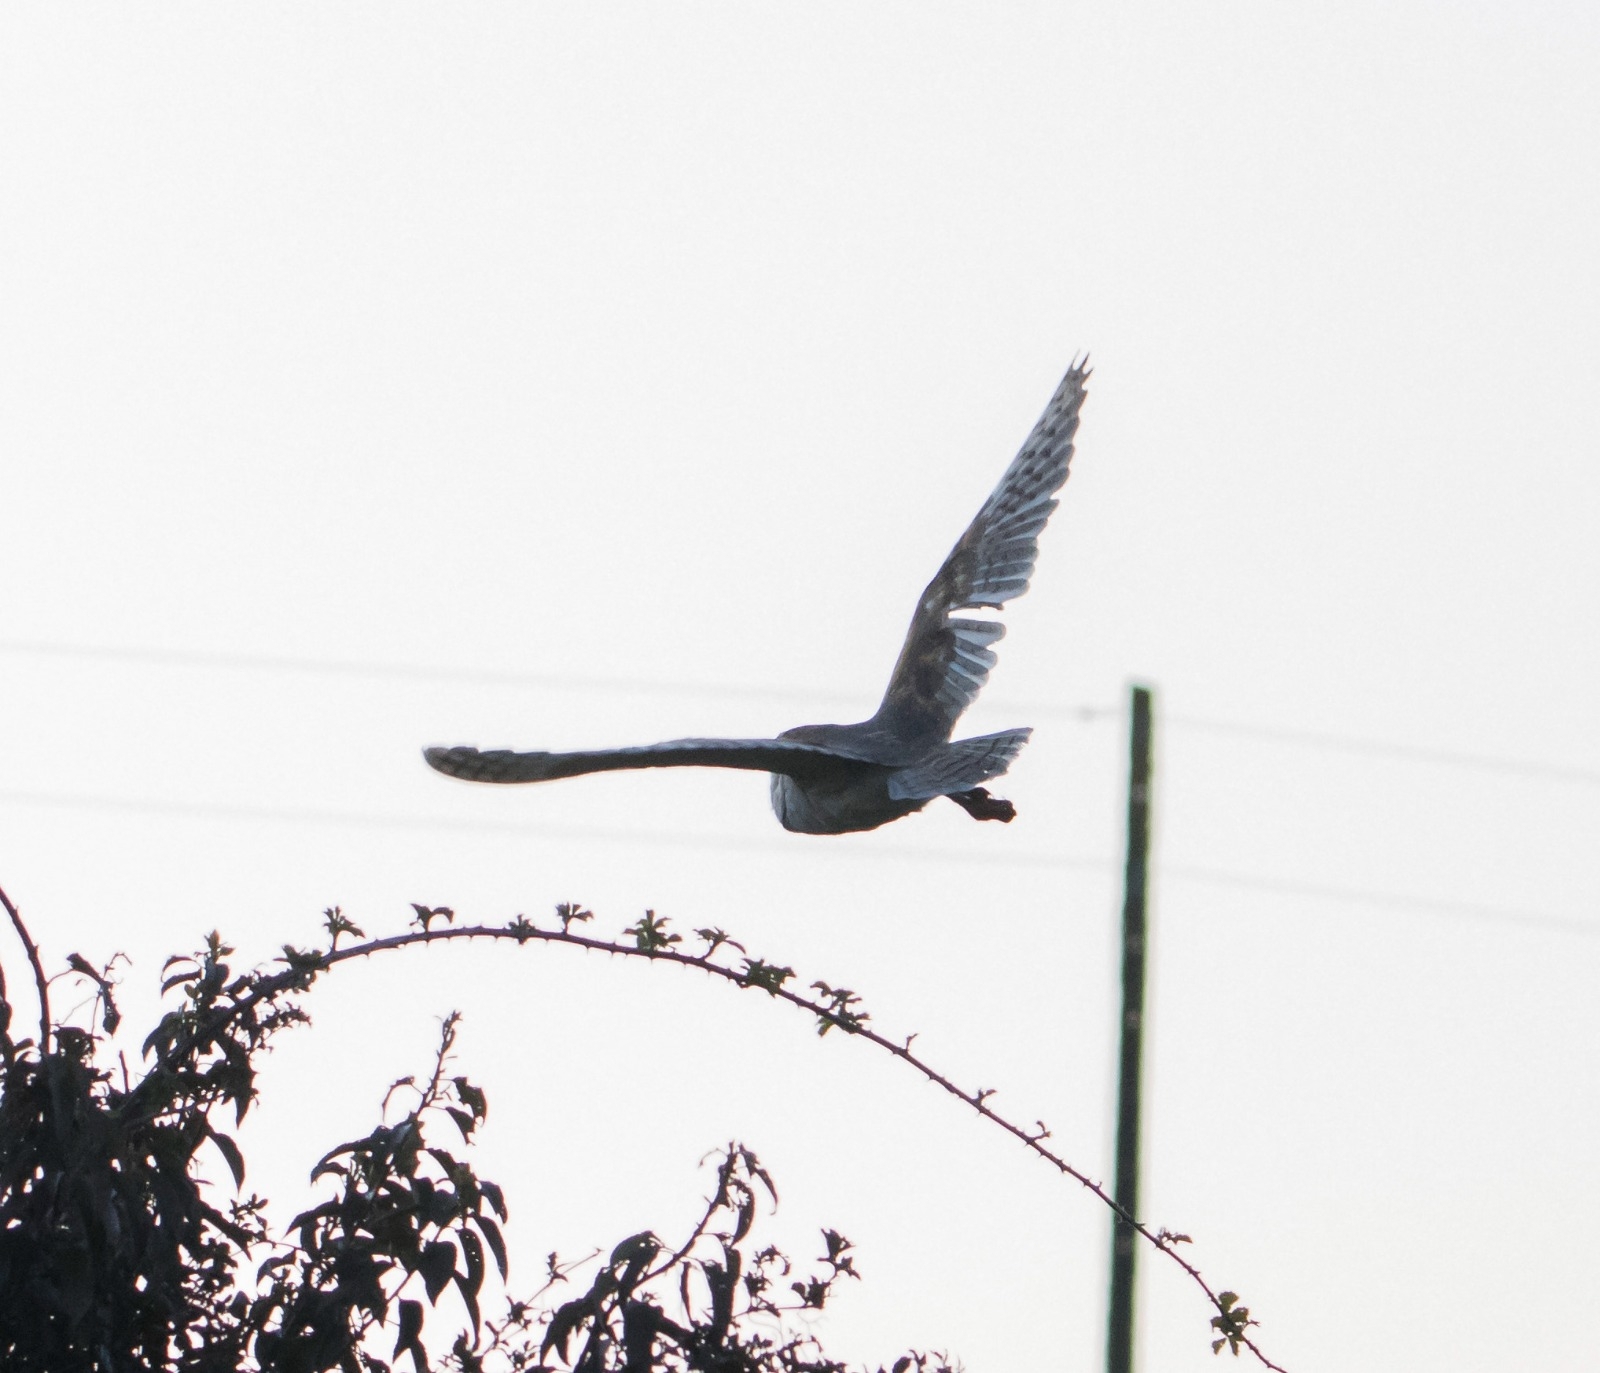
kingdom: Animalia
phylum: Chordata
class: Aves
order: Strigiformes
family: Tytonidae
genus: Tyto
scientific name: Tyto alba
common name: Barn owl
